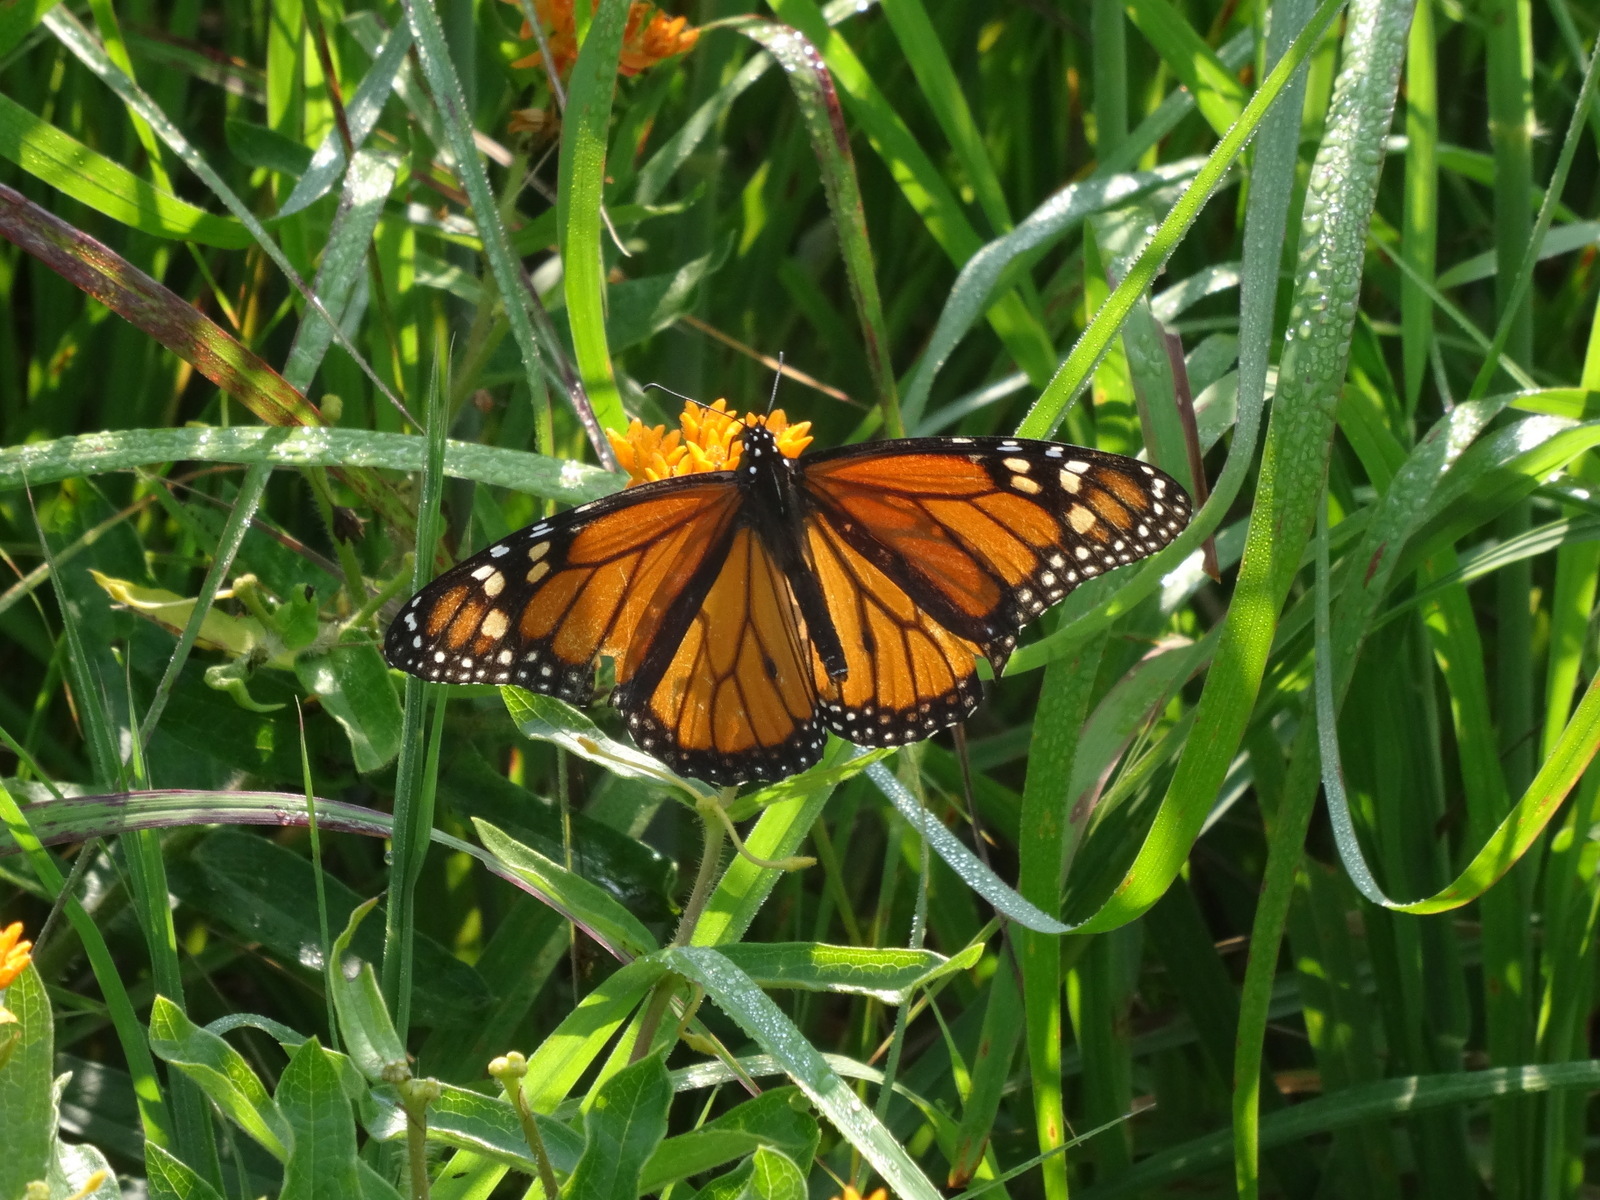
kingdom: Animalia
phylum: Arthropoda
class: Insecta
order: Lepidoptera
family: Nymphalidae
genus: Danaus
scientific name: Danaus plexippus
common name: Monarch
